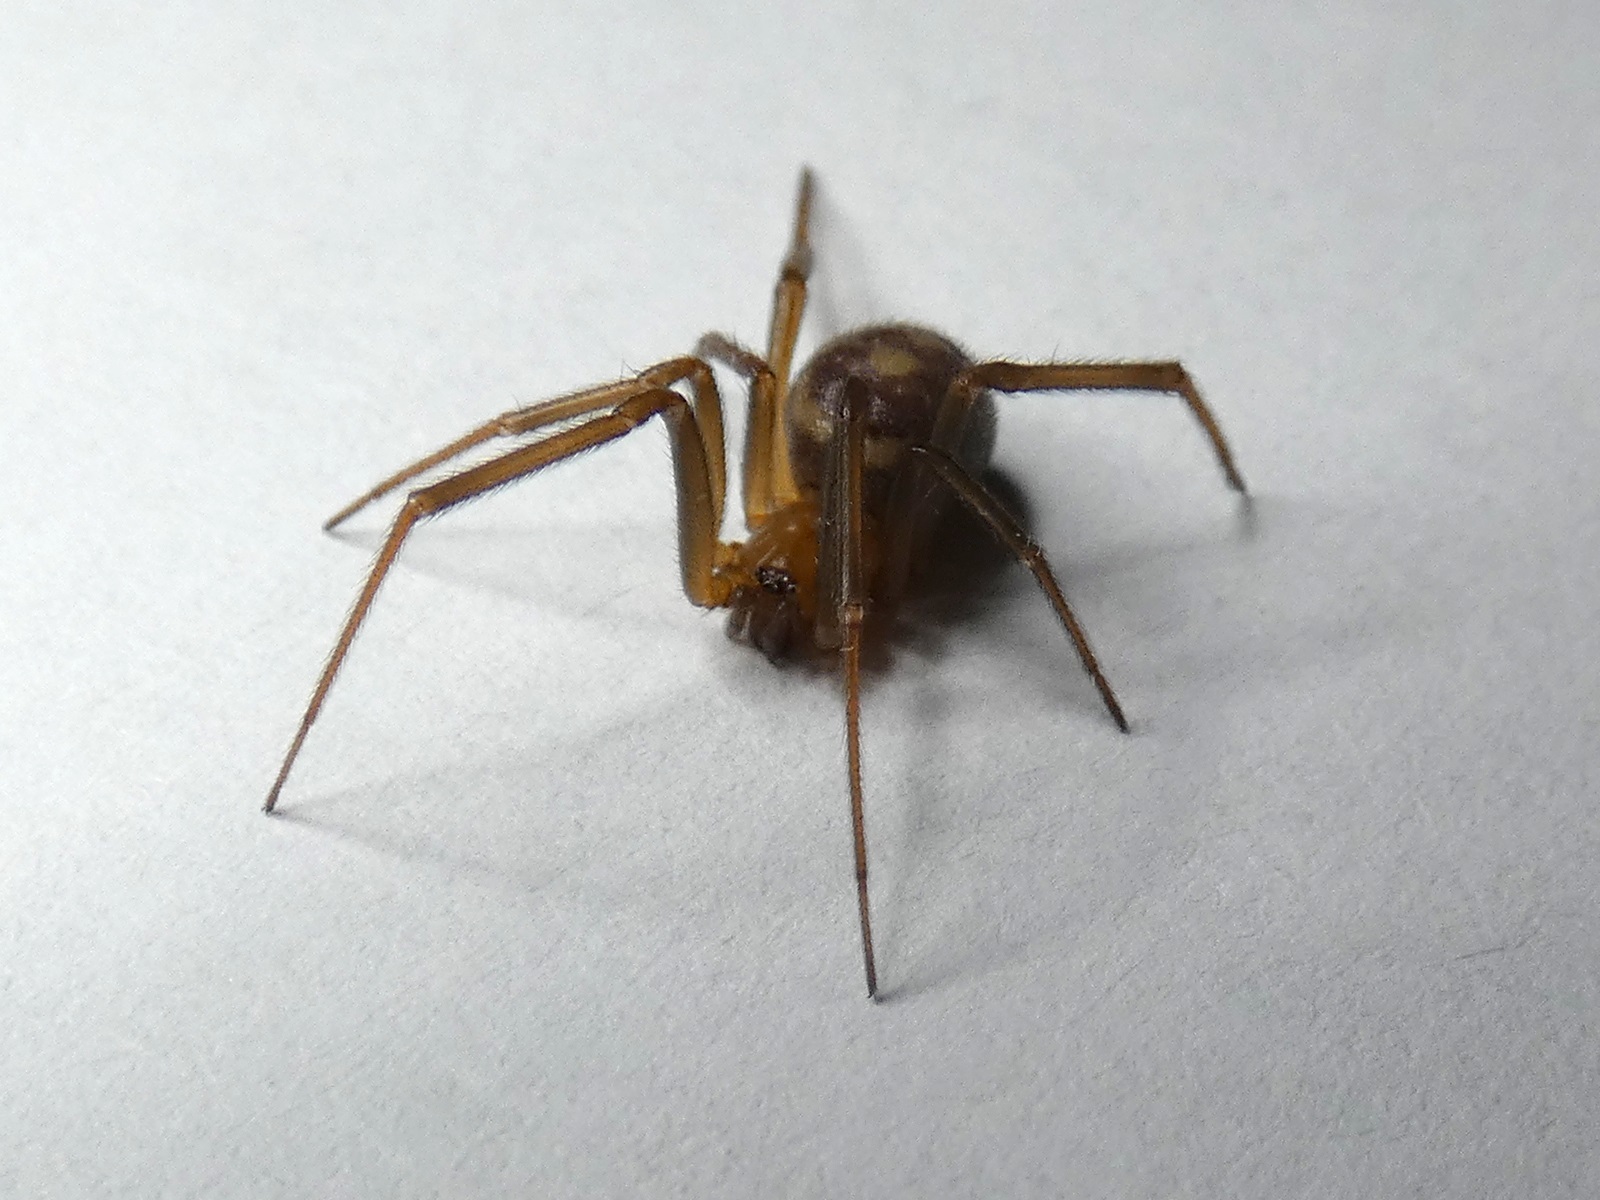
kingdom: Animalia
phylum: Arthropoda
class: Arachnida
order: Araneae
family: Theridiidae
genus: Steatoda
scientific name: Steatoda grossa
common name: False black widow
